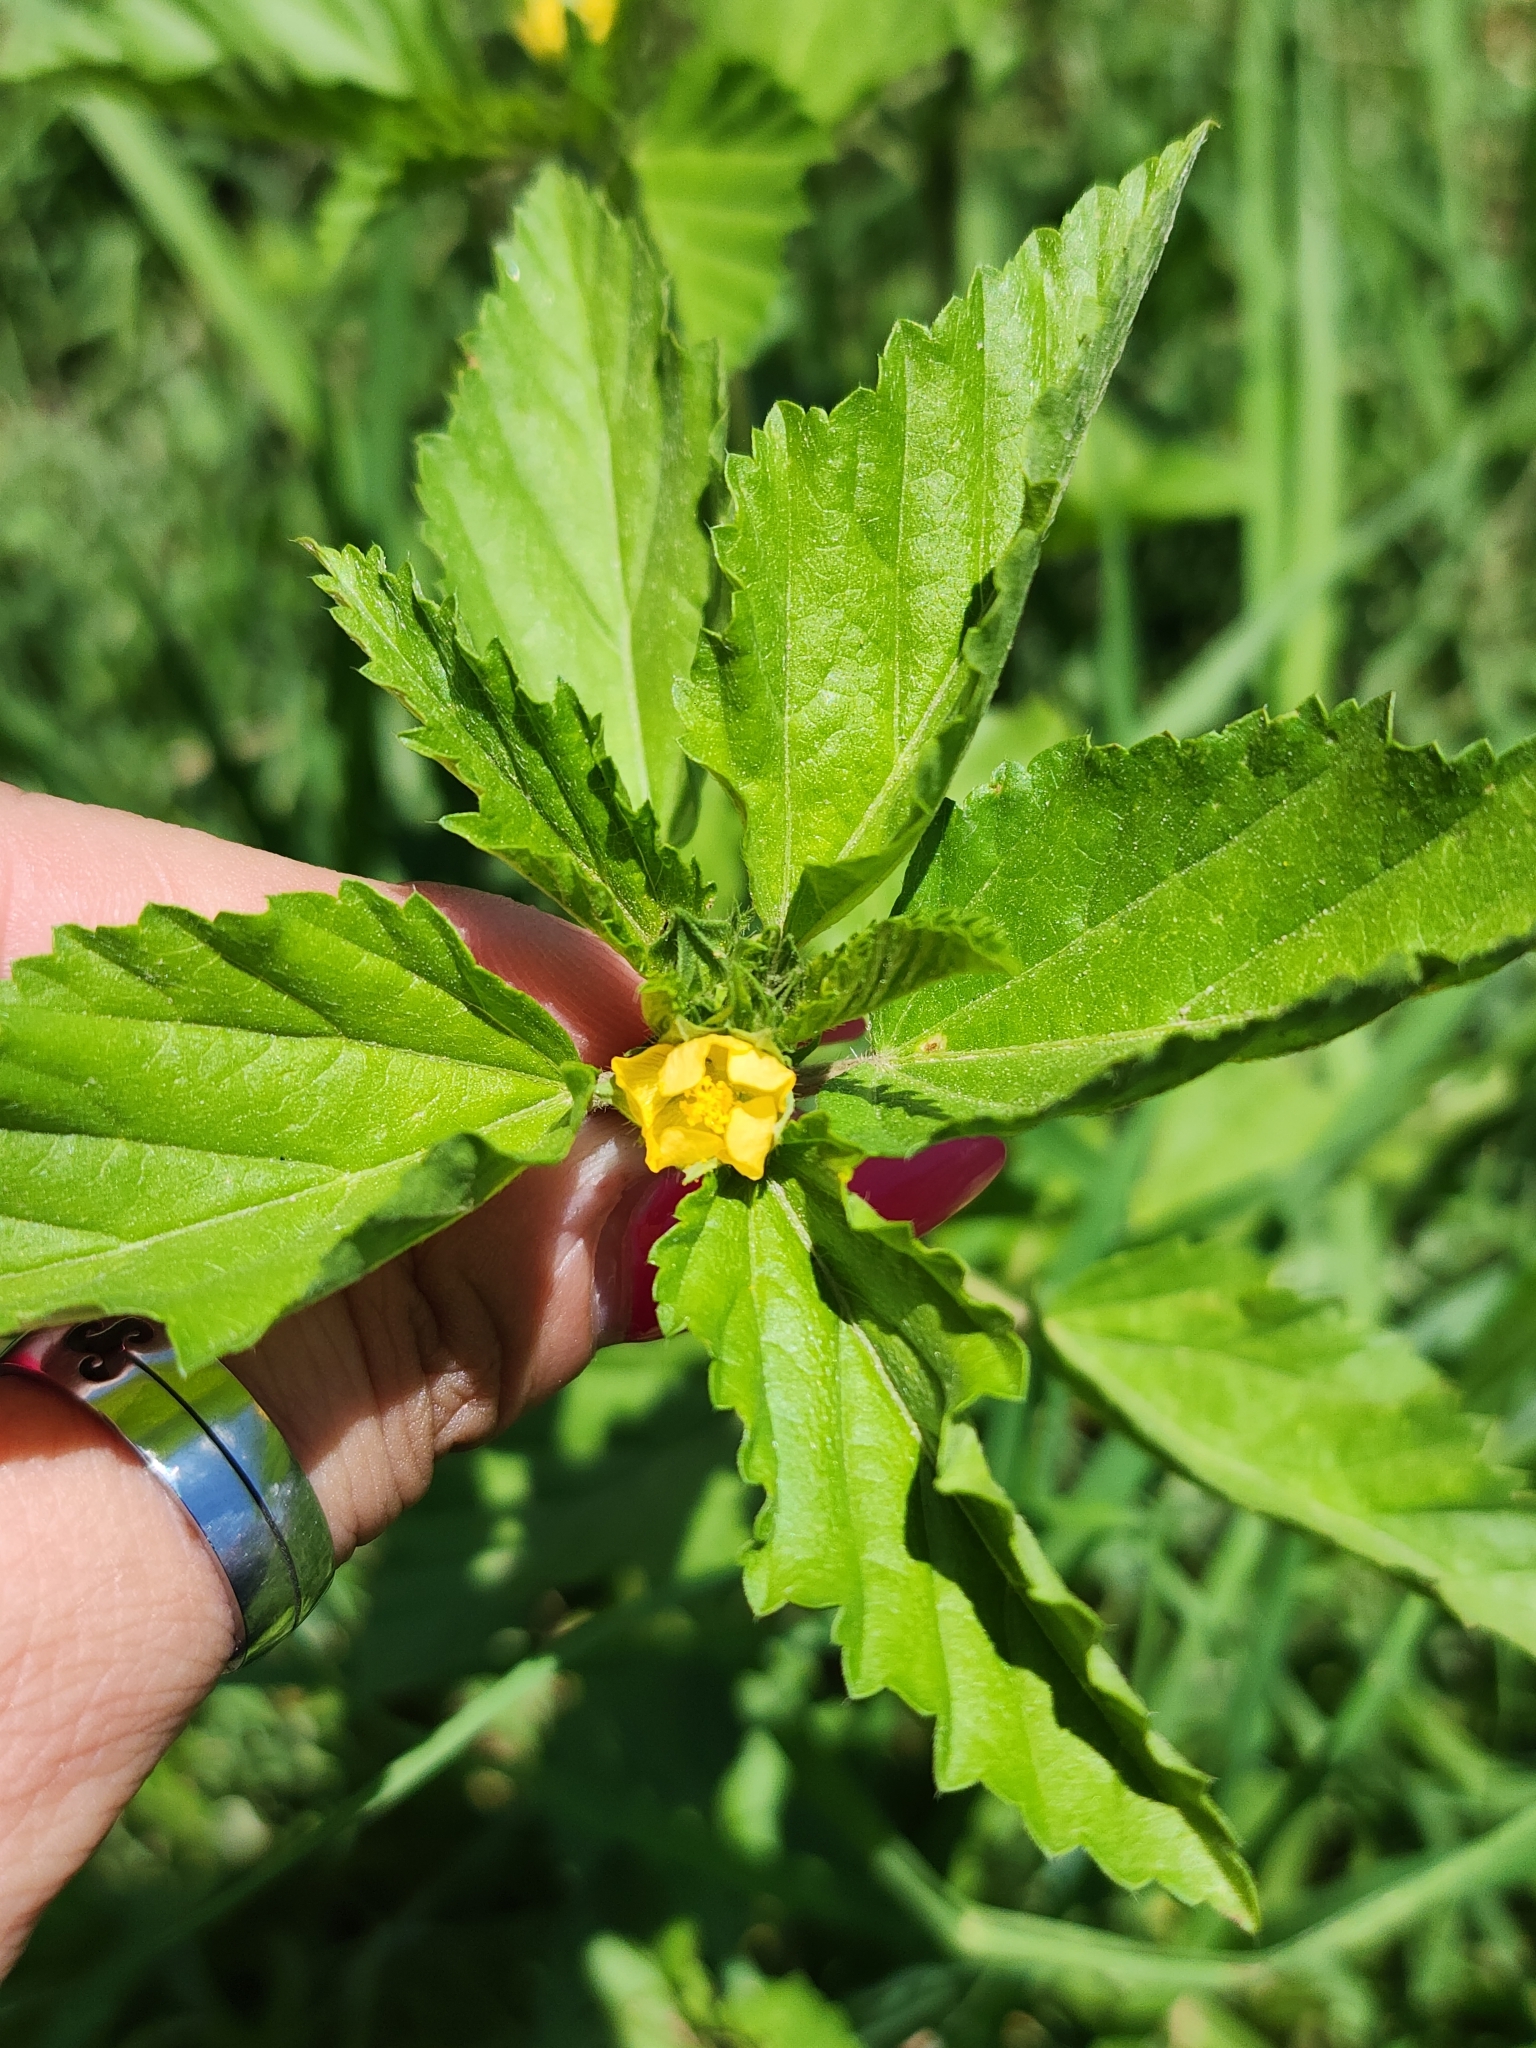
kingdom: Plantae
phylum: Tracheophyta
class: Magnoliopsida
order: Malvales
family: Malvaceae
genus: Malvastrum
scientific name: Malvastrum coromandelianum
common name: Threelobe false mallow
